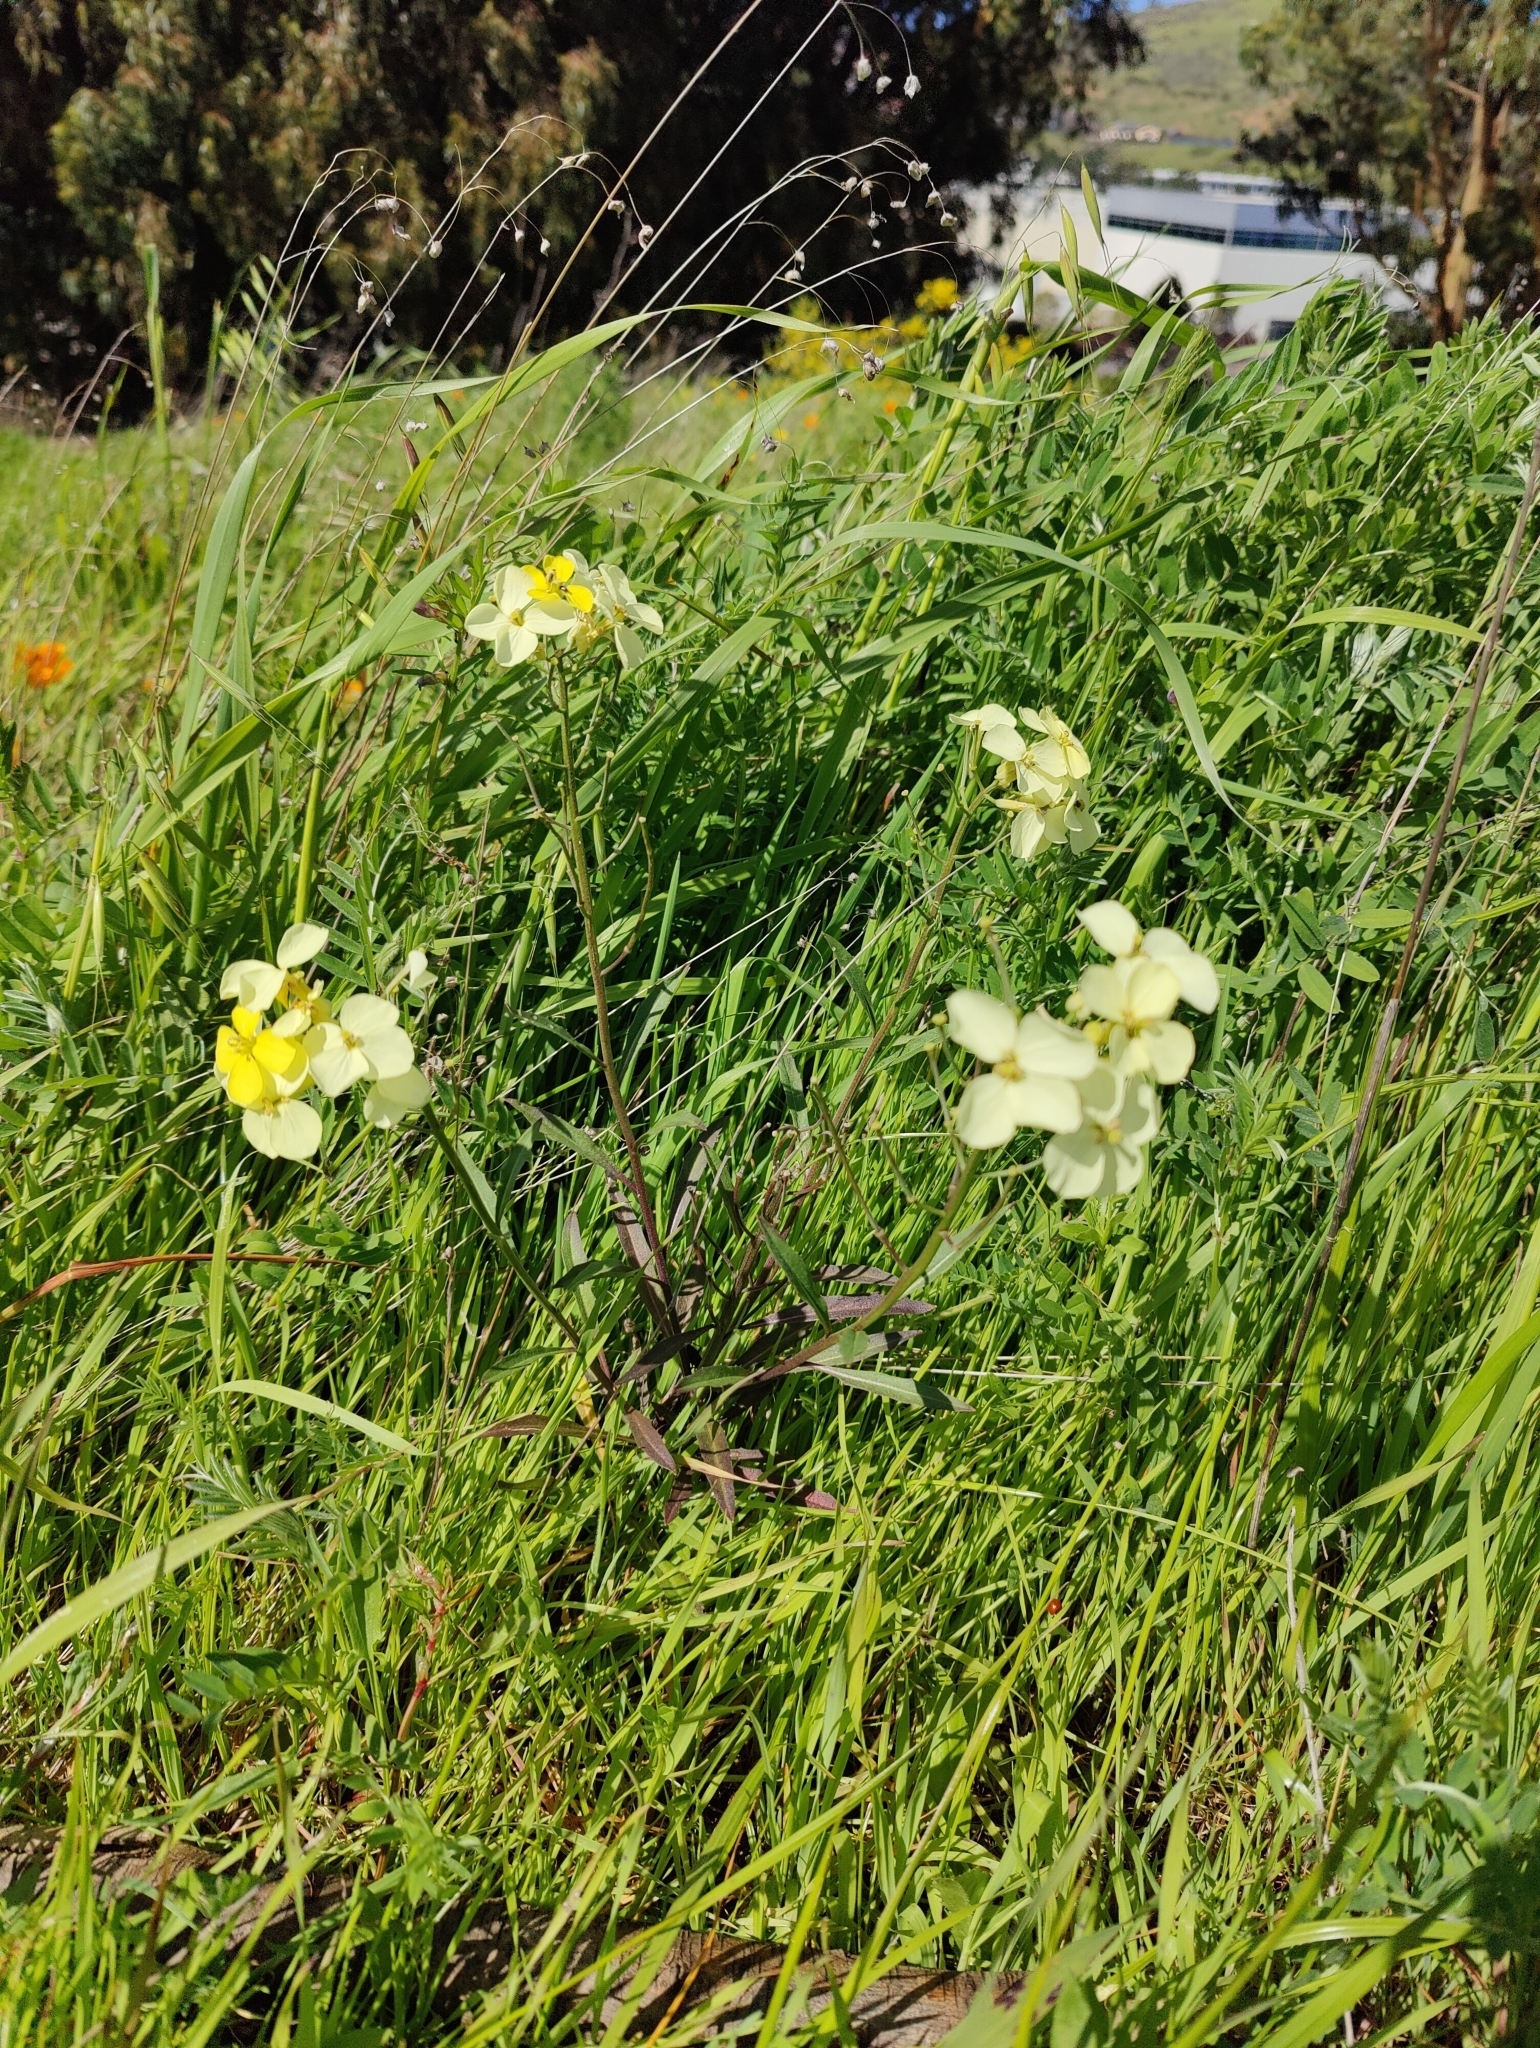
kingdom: Plantae
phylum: Tracheophyta
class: Magnoliopsida
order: Brassicales
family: Brassicaceae
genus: Erysimum
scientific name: Erysimum franciscanum
